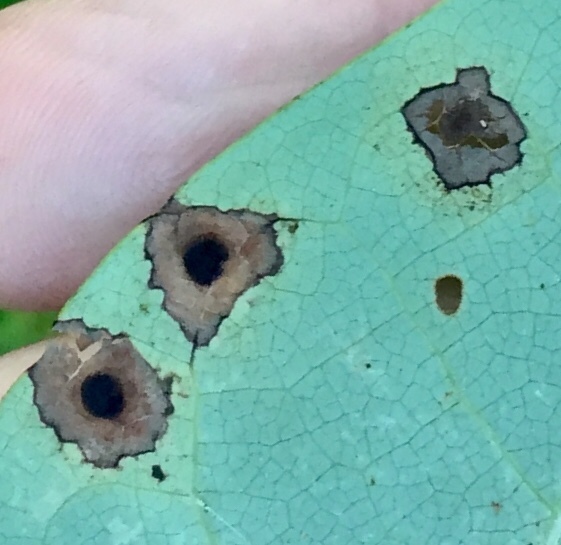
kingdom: Animalia
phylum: Arthropoda
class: Insecta
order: Diptera
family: Cecidomyiidae
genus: Resseliella
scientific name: Resseliella liriodendri
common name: Tulip tree leaf spot gall midge
